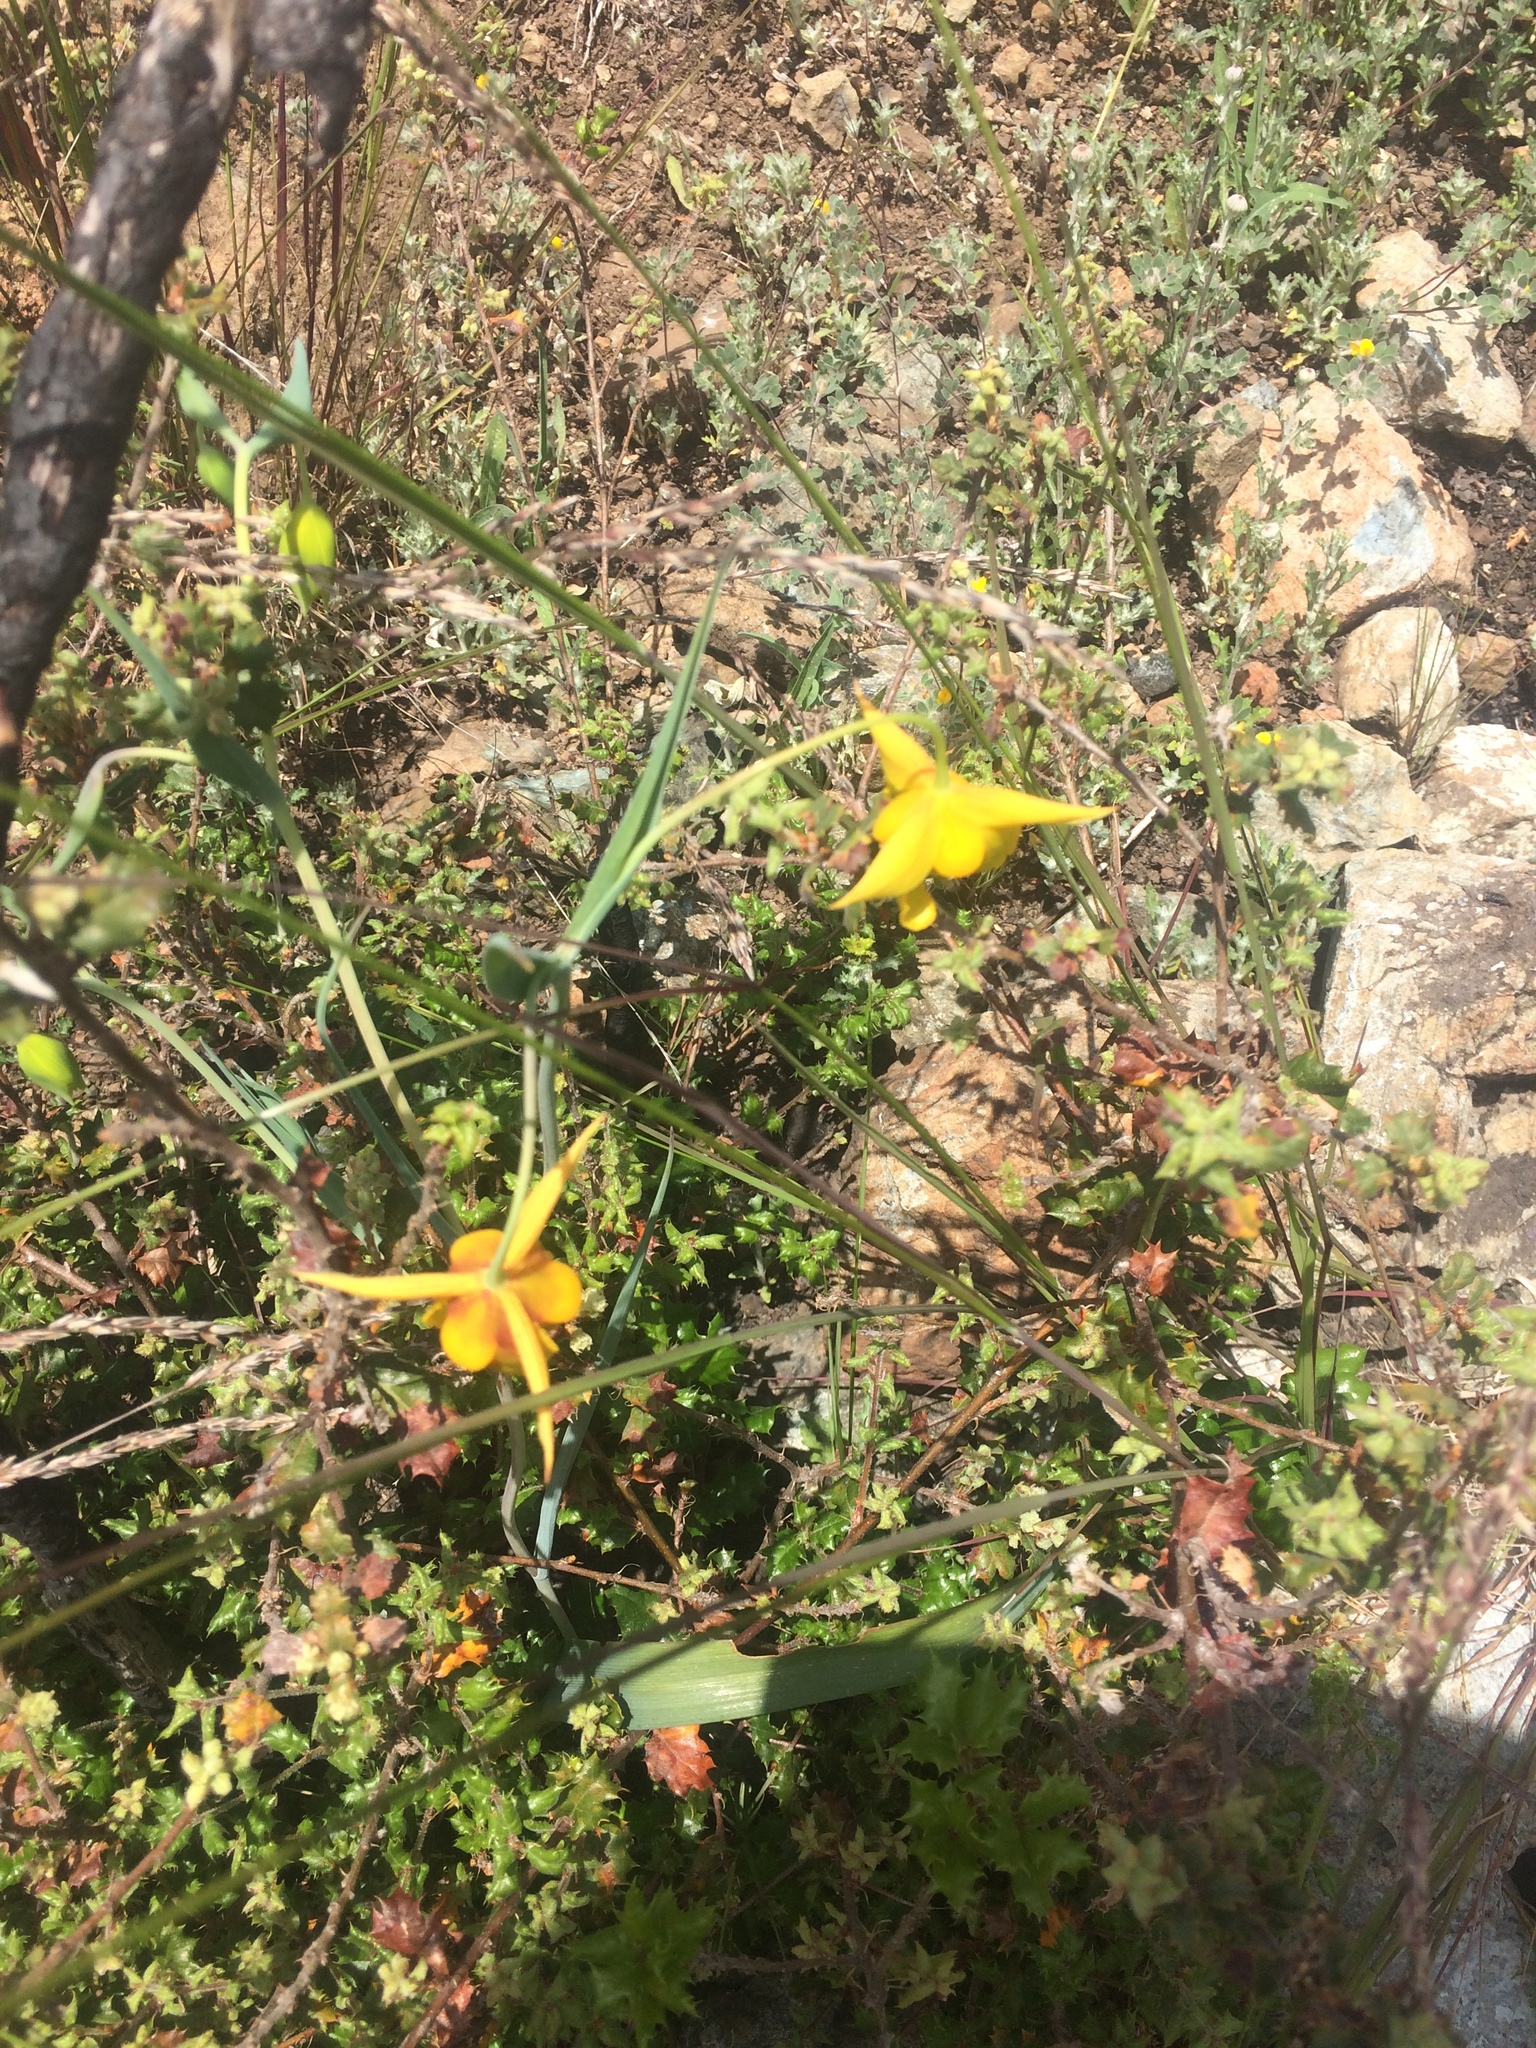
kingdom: Plantae
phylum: Tracheophyta
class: Liliopsida
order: Liliales
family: Liliaceae
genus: Calochortus
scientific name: Calochortus amabilis
